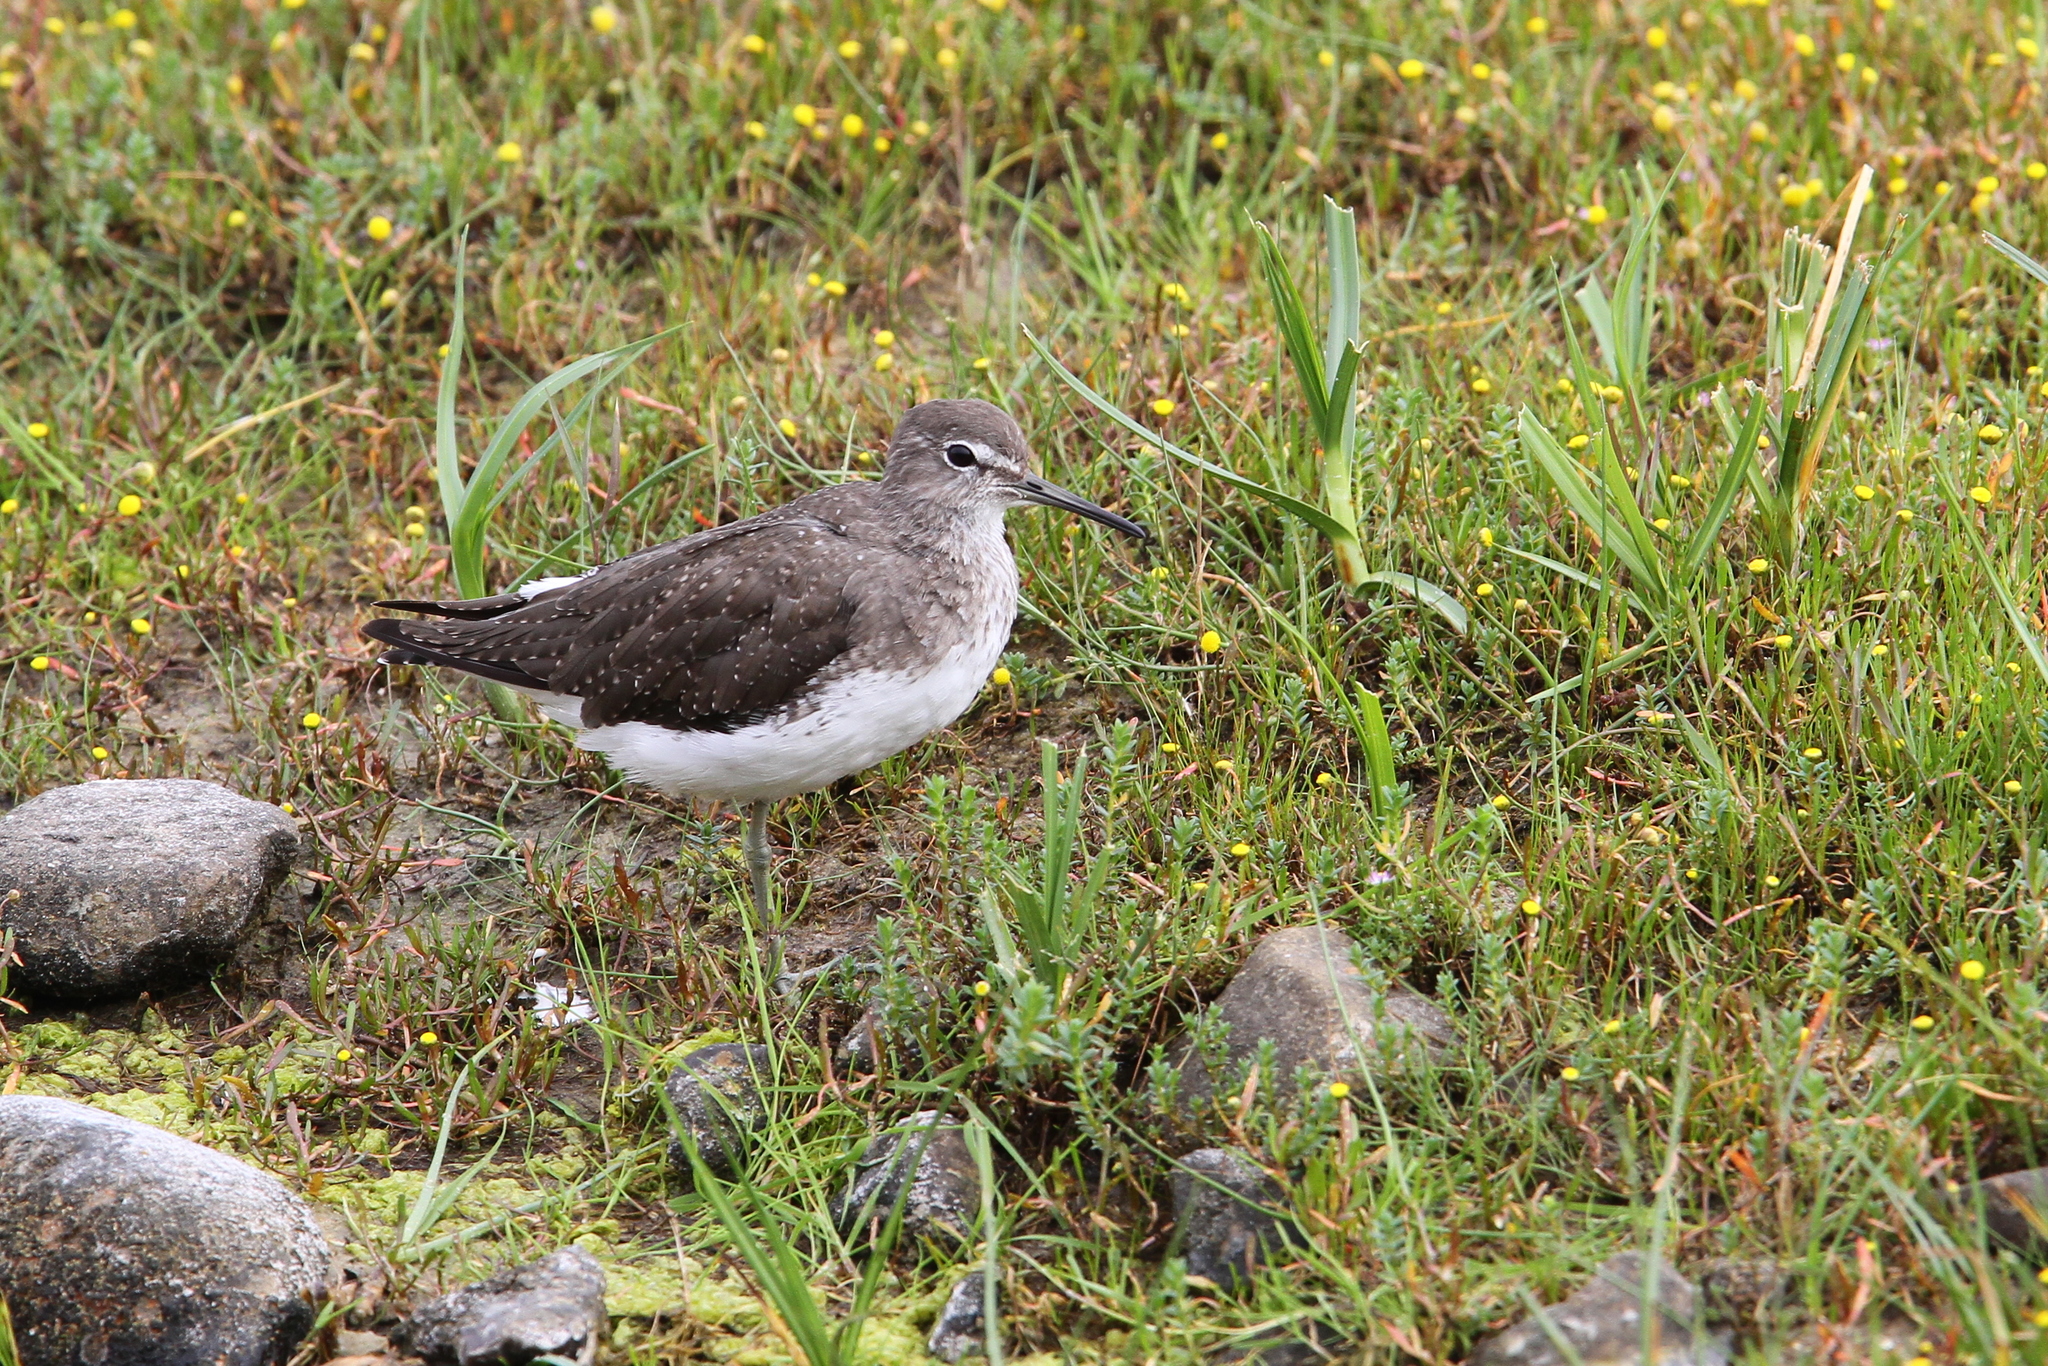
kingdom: Animalia
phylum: Chordata
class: Aves
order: Charadriiformes
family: Scolopacidae
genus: Tringa
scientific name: Tringa ochropus
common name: Green sandpiper
